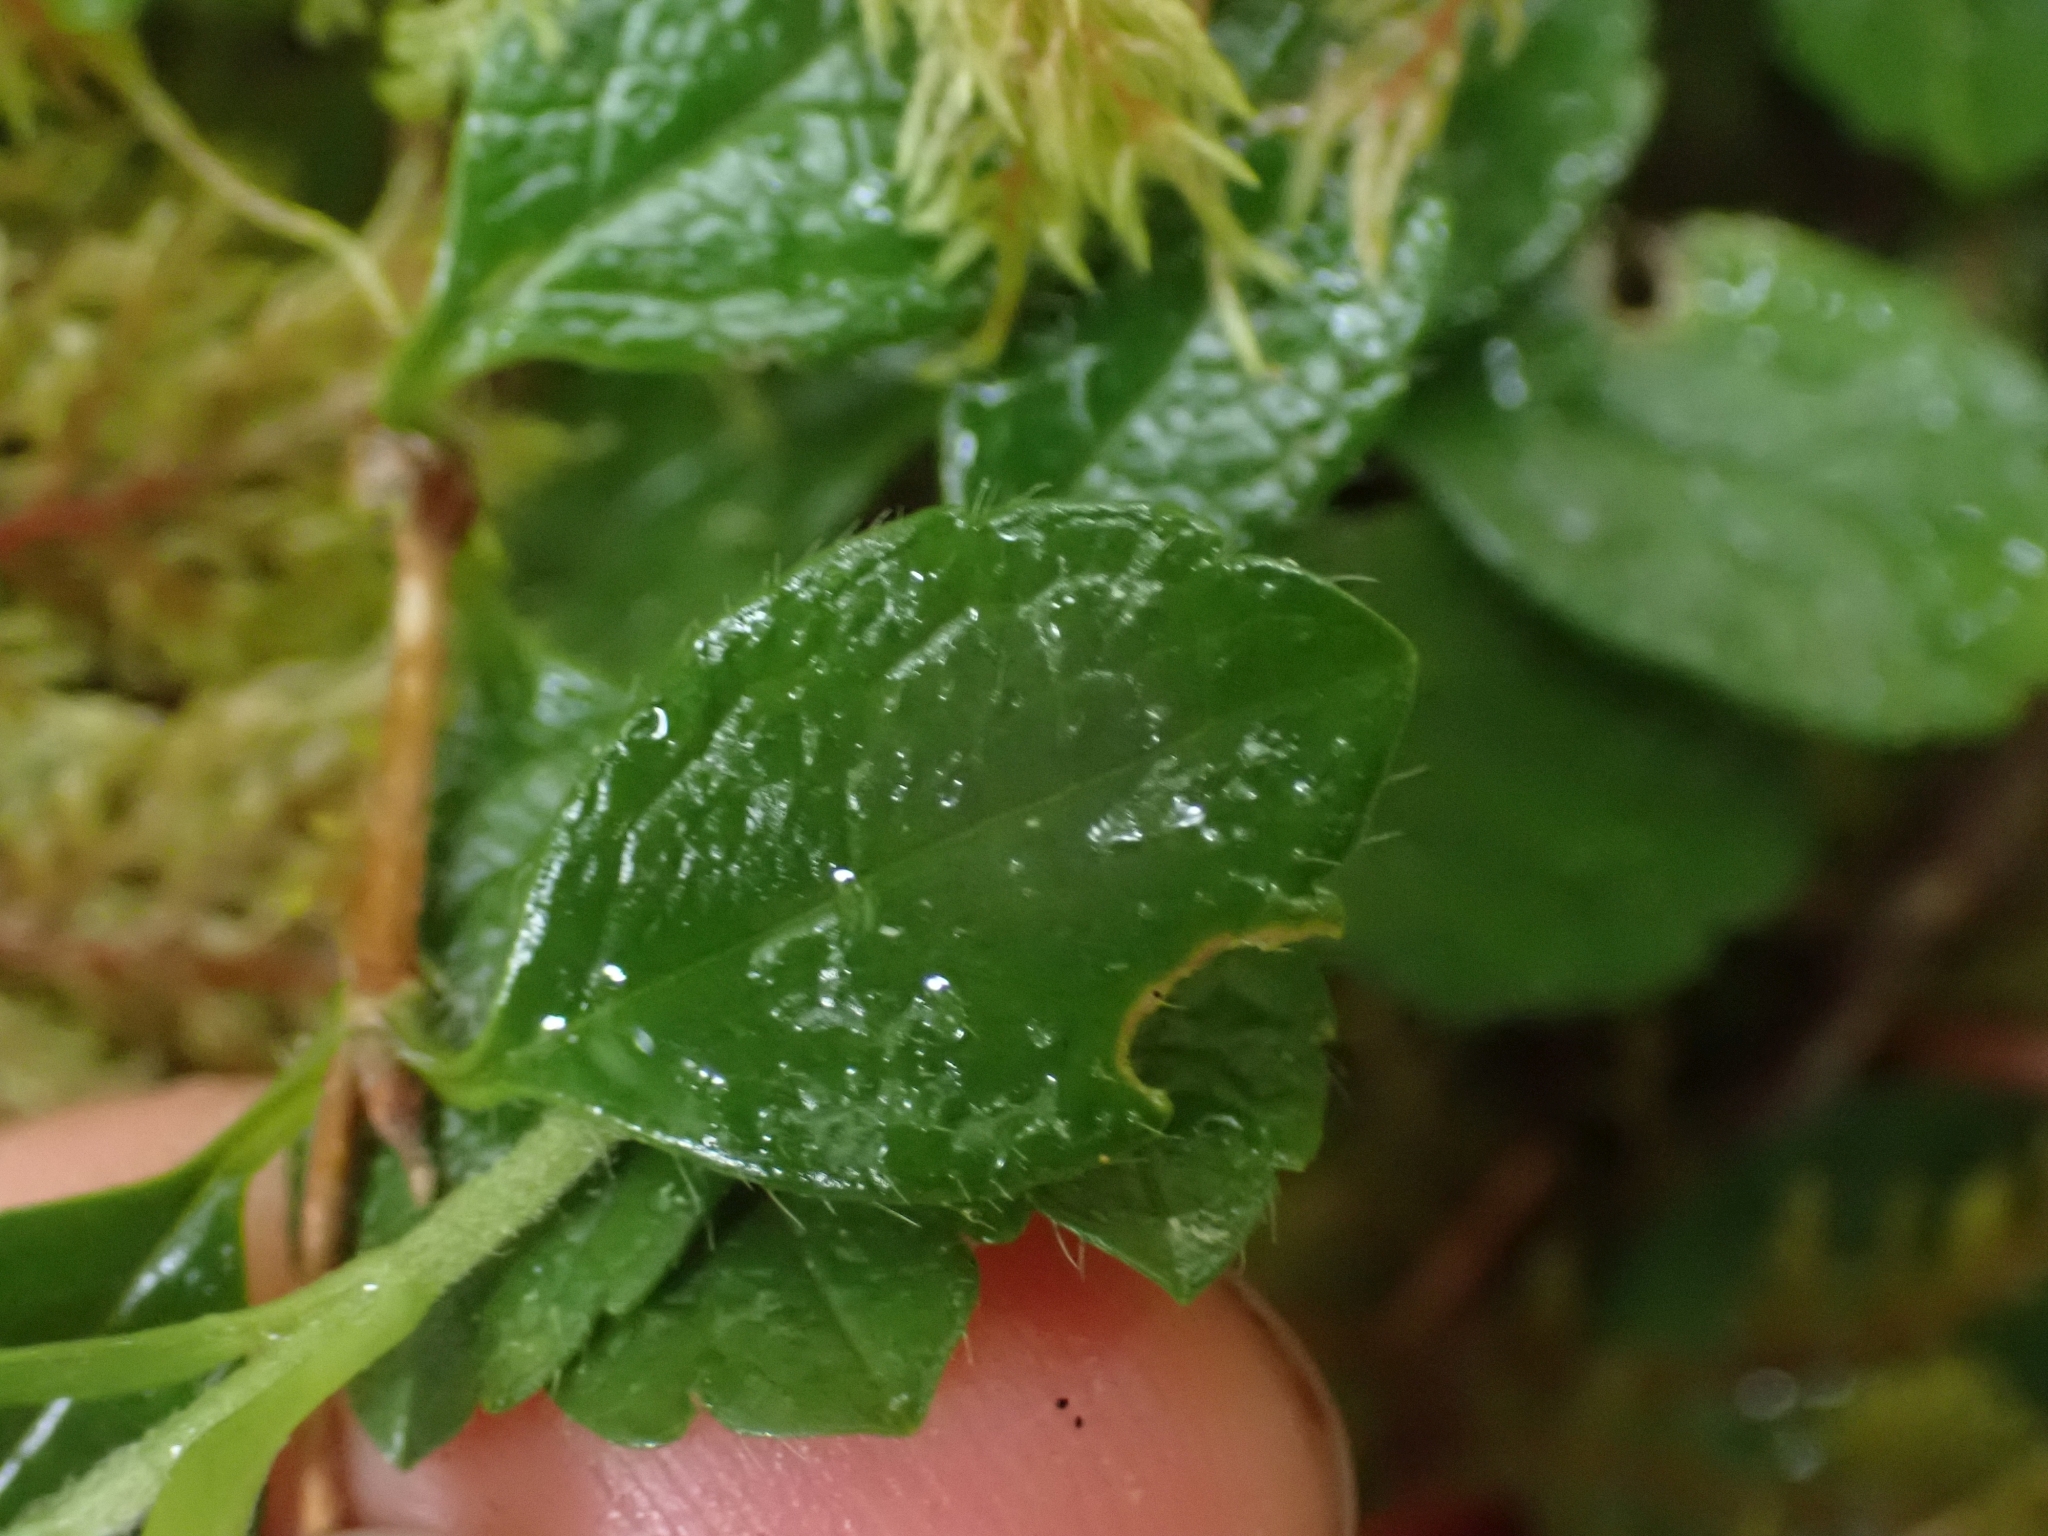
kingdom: Plantae
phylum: Tracheophyta
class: Magnoliopsida
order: Dipsacales
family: Caprifoliaceae
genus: Linnaea
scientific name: Linnaea borealis
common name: Twinflower
